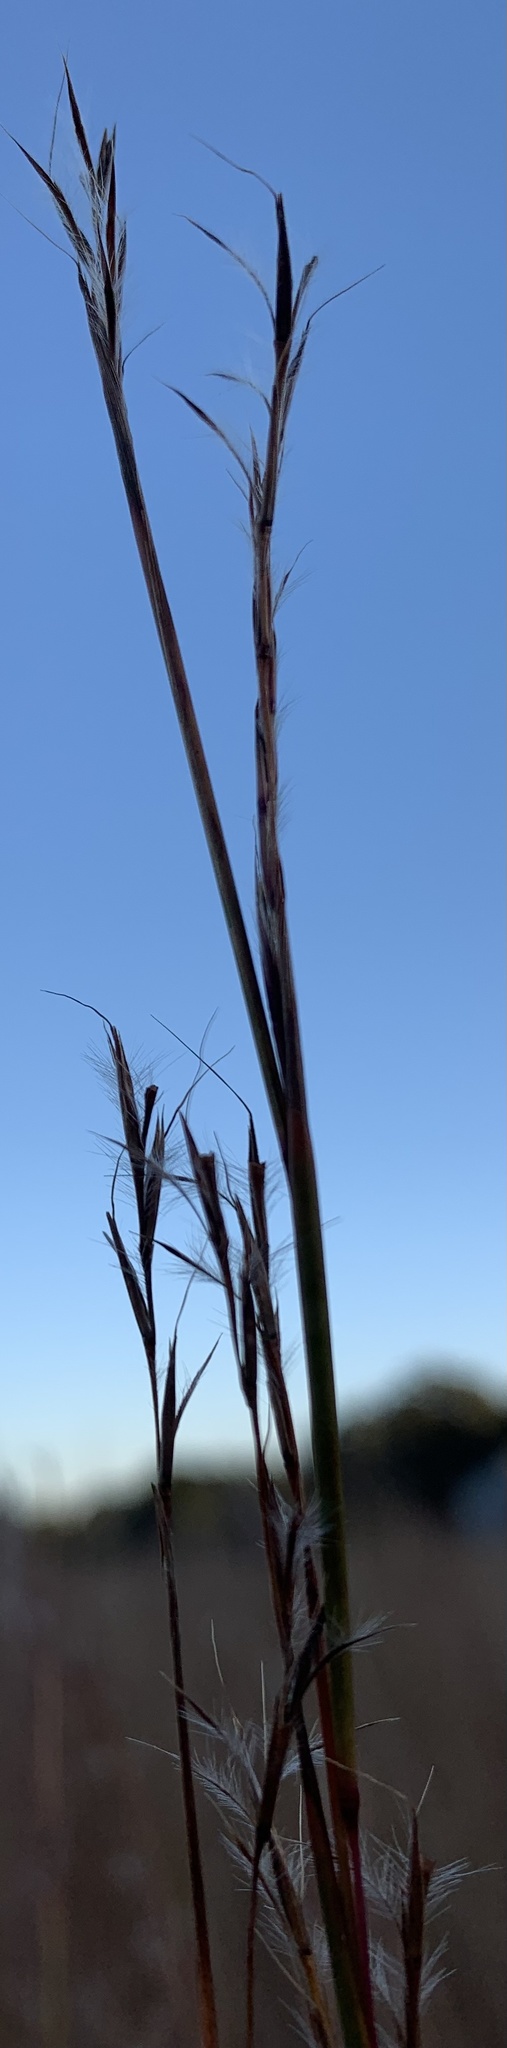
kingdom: Plantae
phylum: Tracheophyta
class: Liliopsida
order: Poales
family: Poaceae
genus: Schizachyrium
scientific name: Schizachyrium scoparium
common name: Little bluestem
